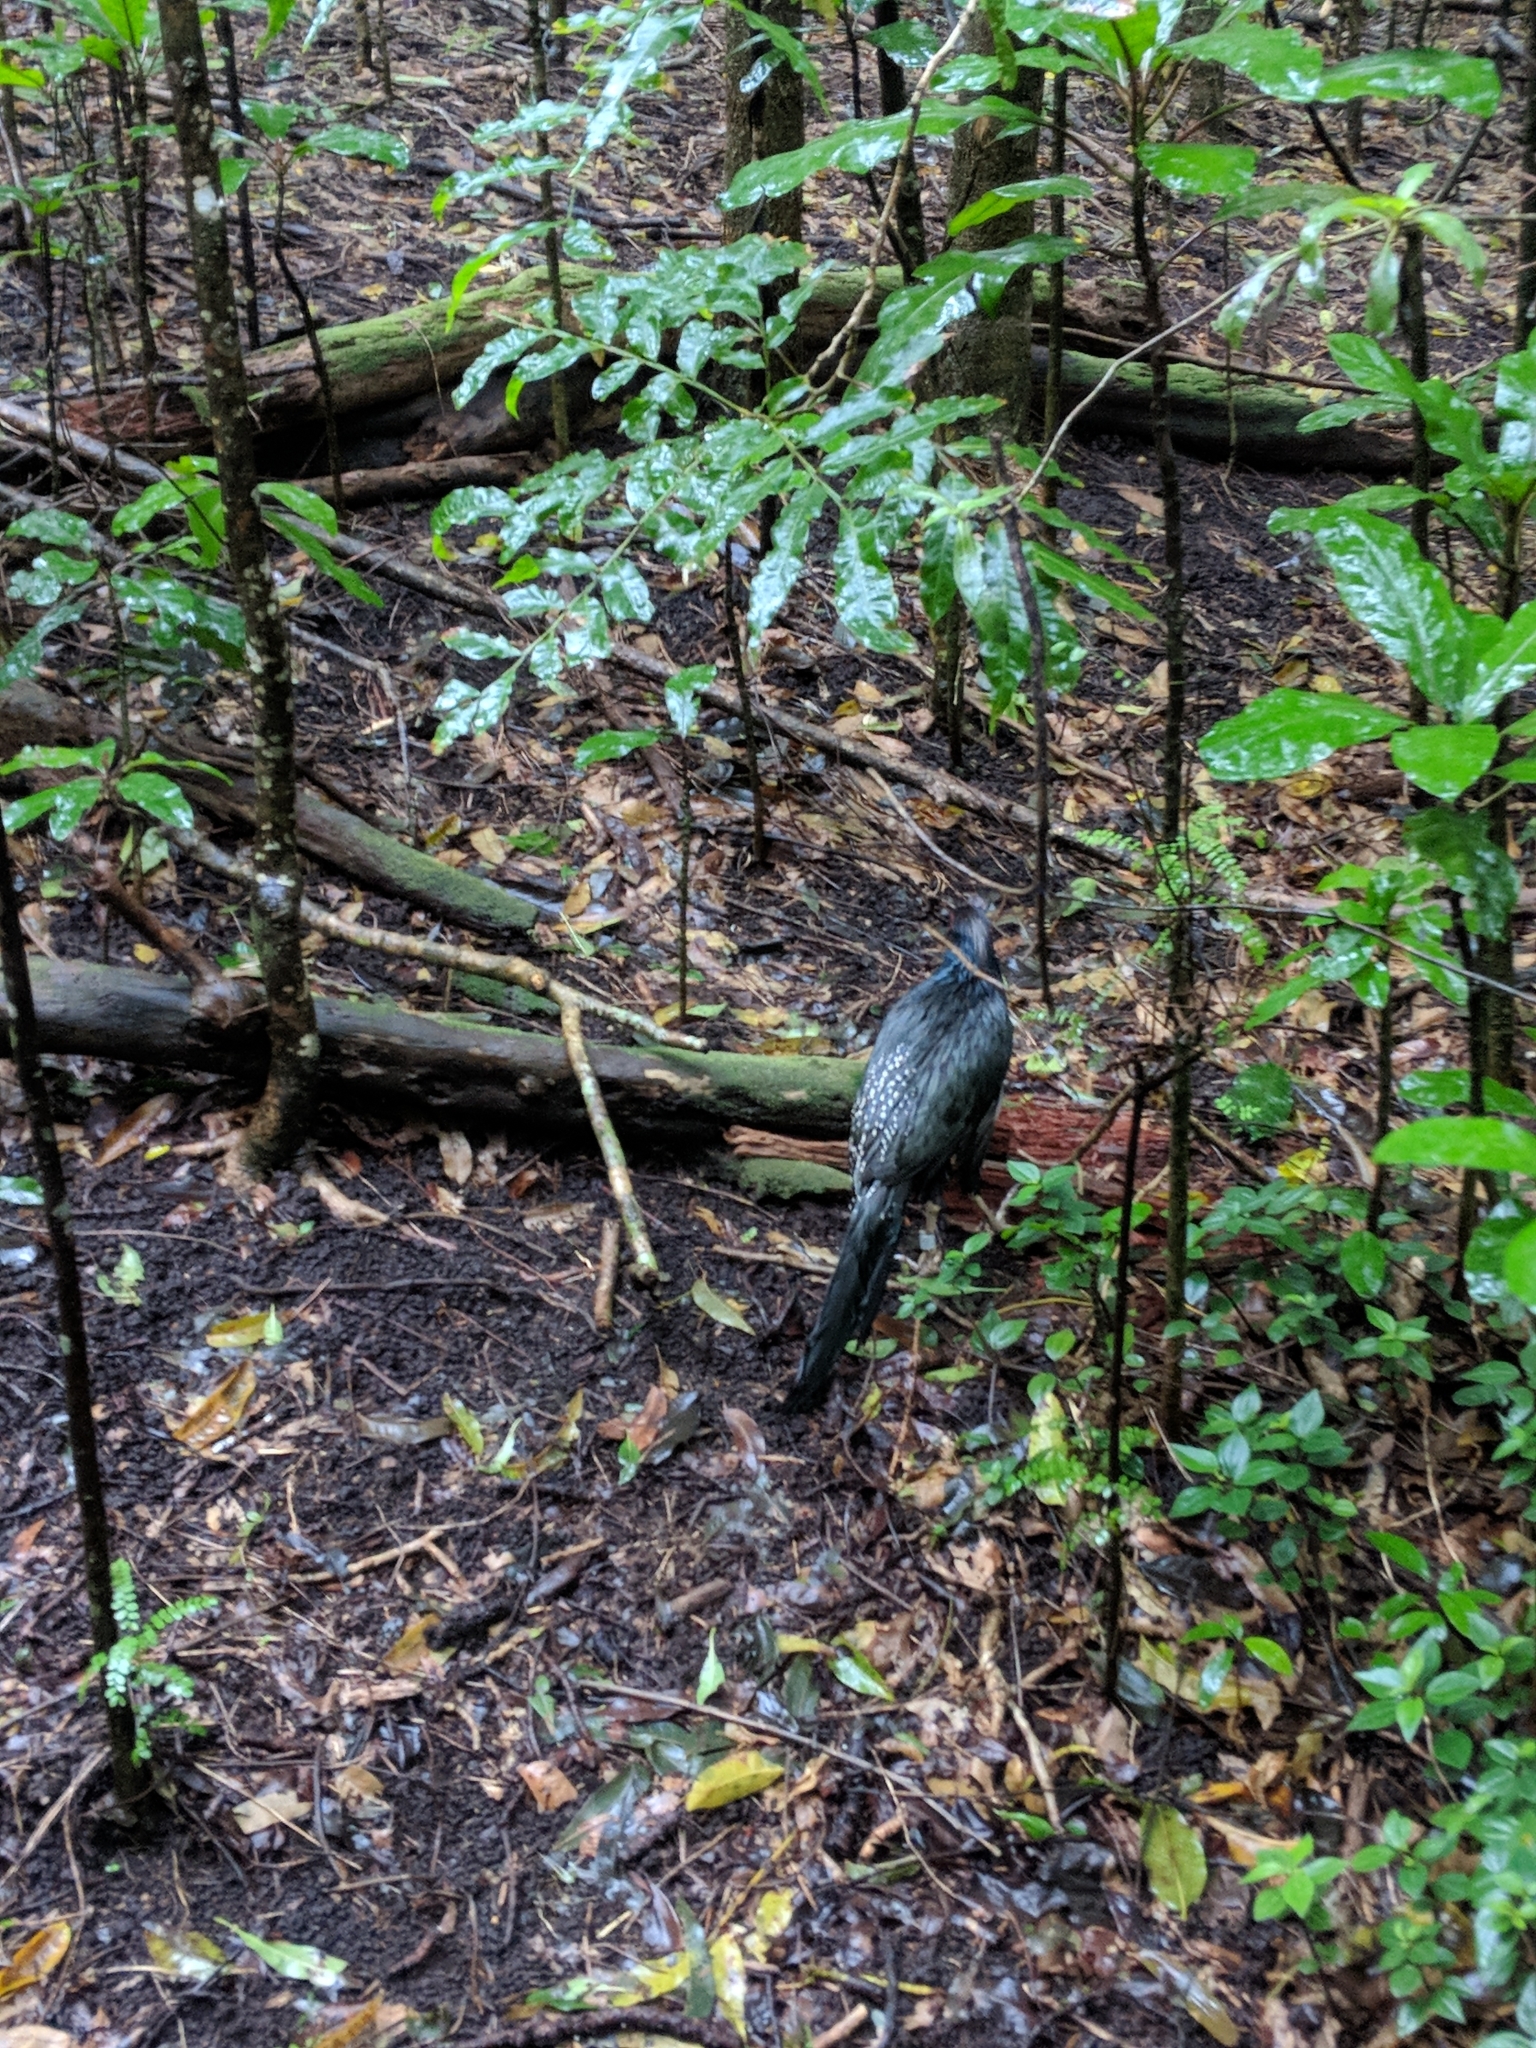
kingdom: Animalia
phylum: Chordata
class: Aves
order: Galliformes
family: Phasianidae
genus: Lophura
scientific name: Lophura leucomelanos
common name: Kalij pheasant
